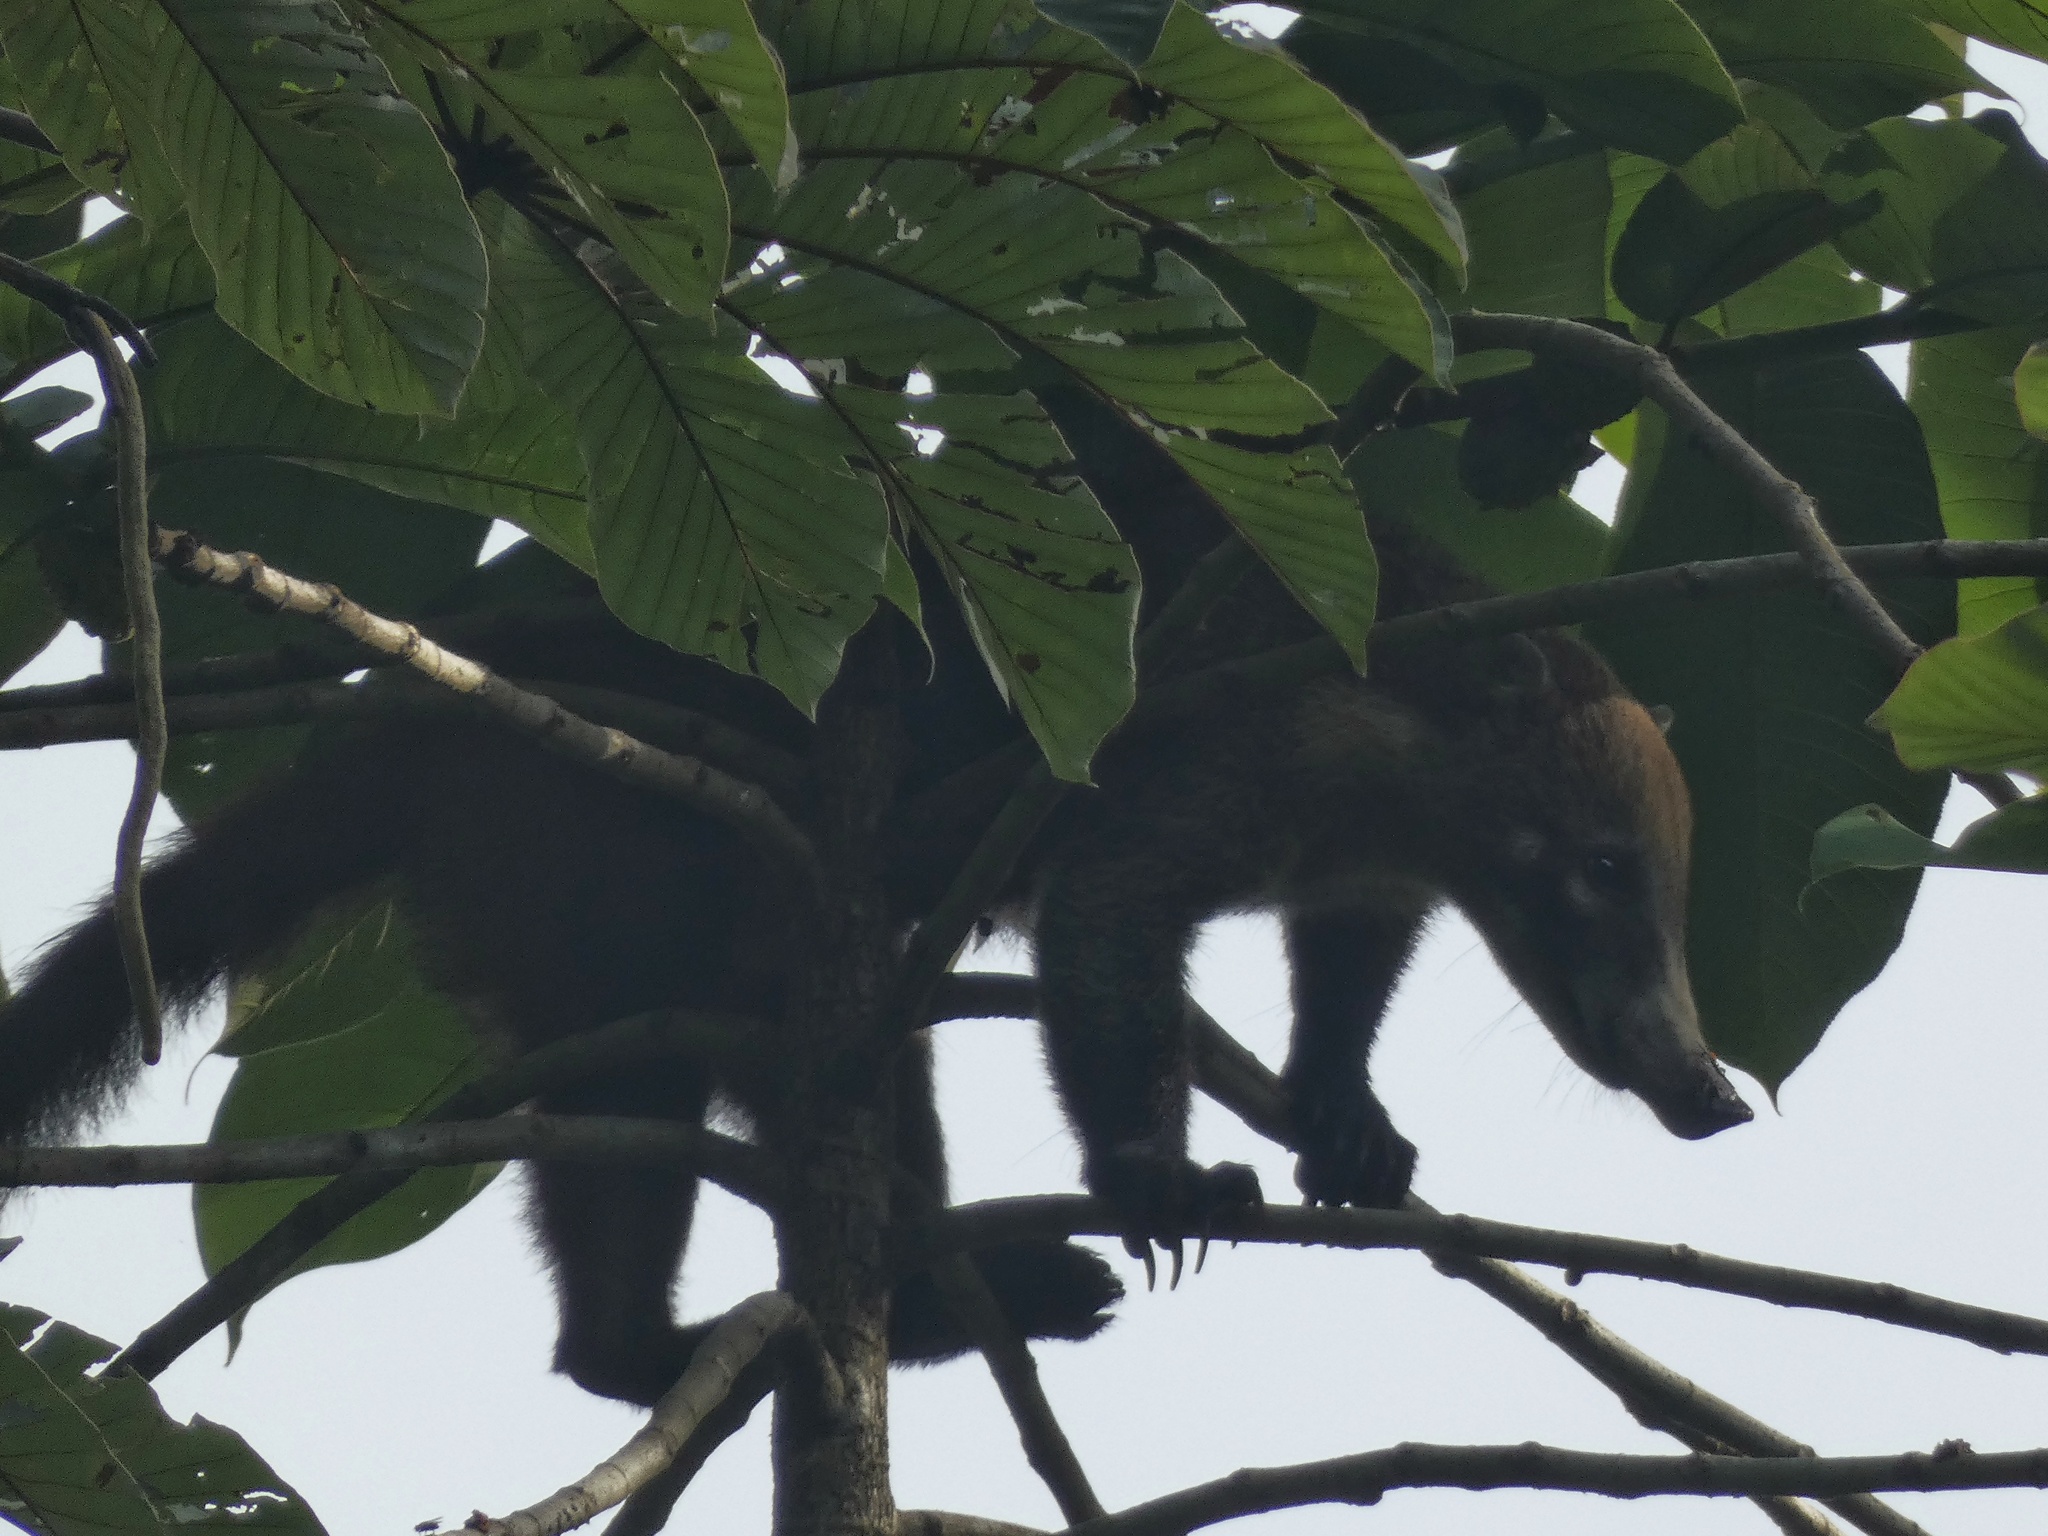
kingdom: Animalia
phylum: Chordata
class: Mammalia
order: Carnivora
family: Procyonidae
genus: Nasua
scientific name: Nasua narica
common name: White-nosed coati
